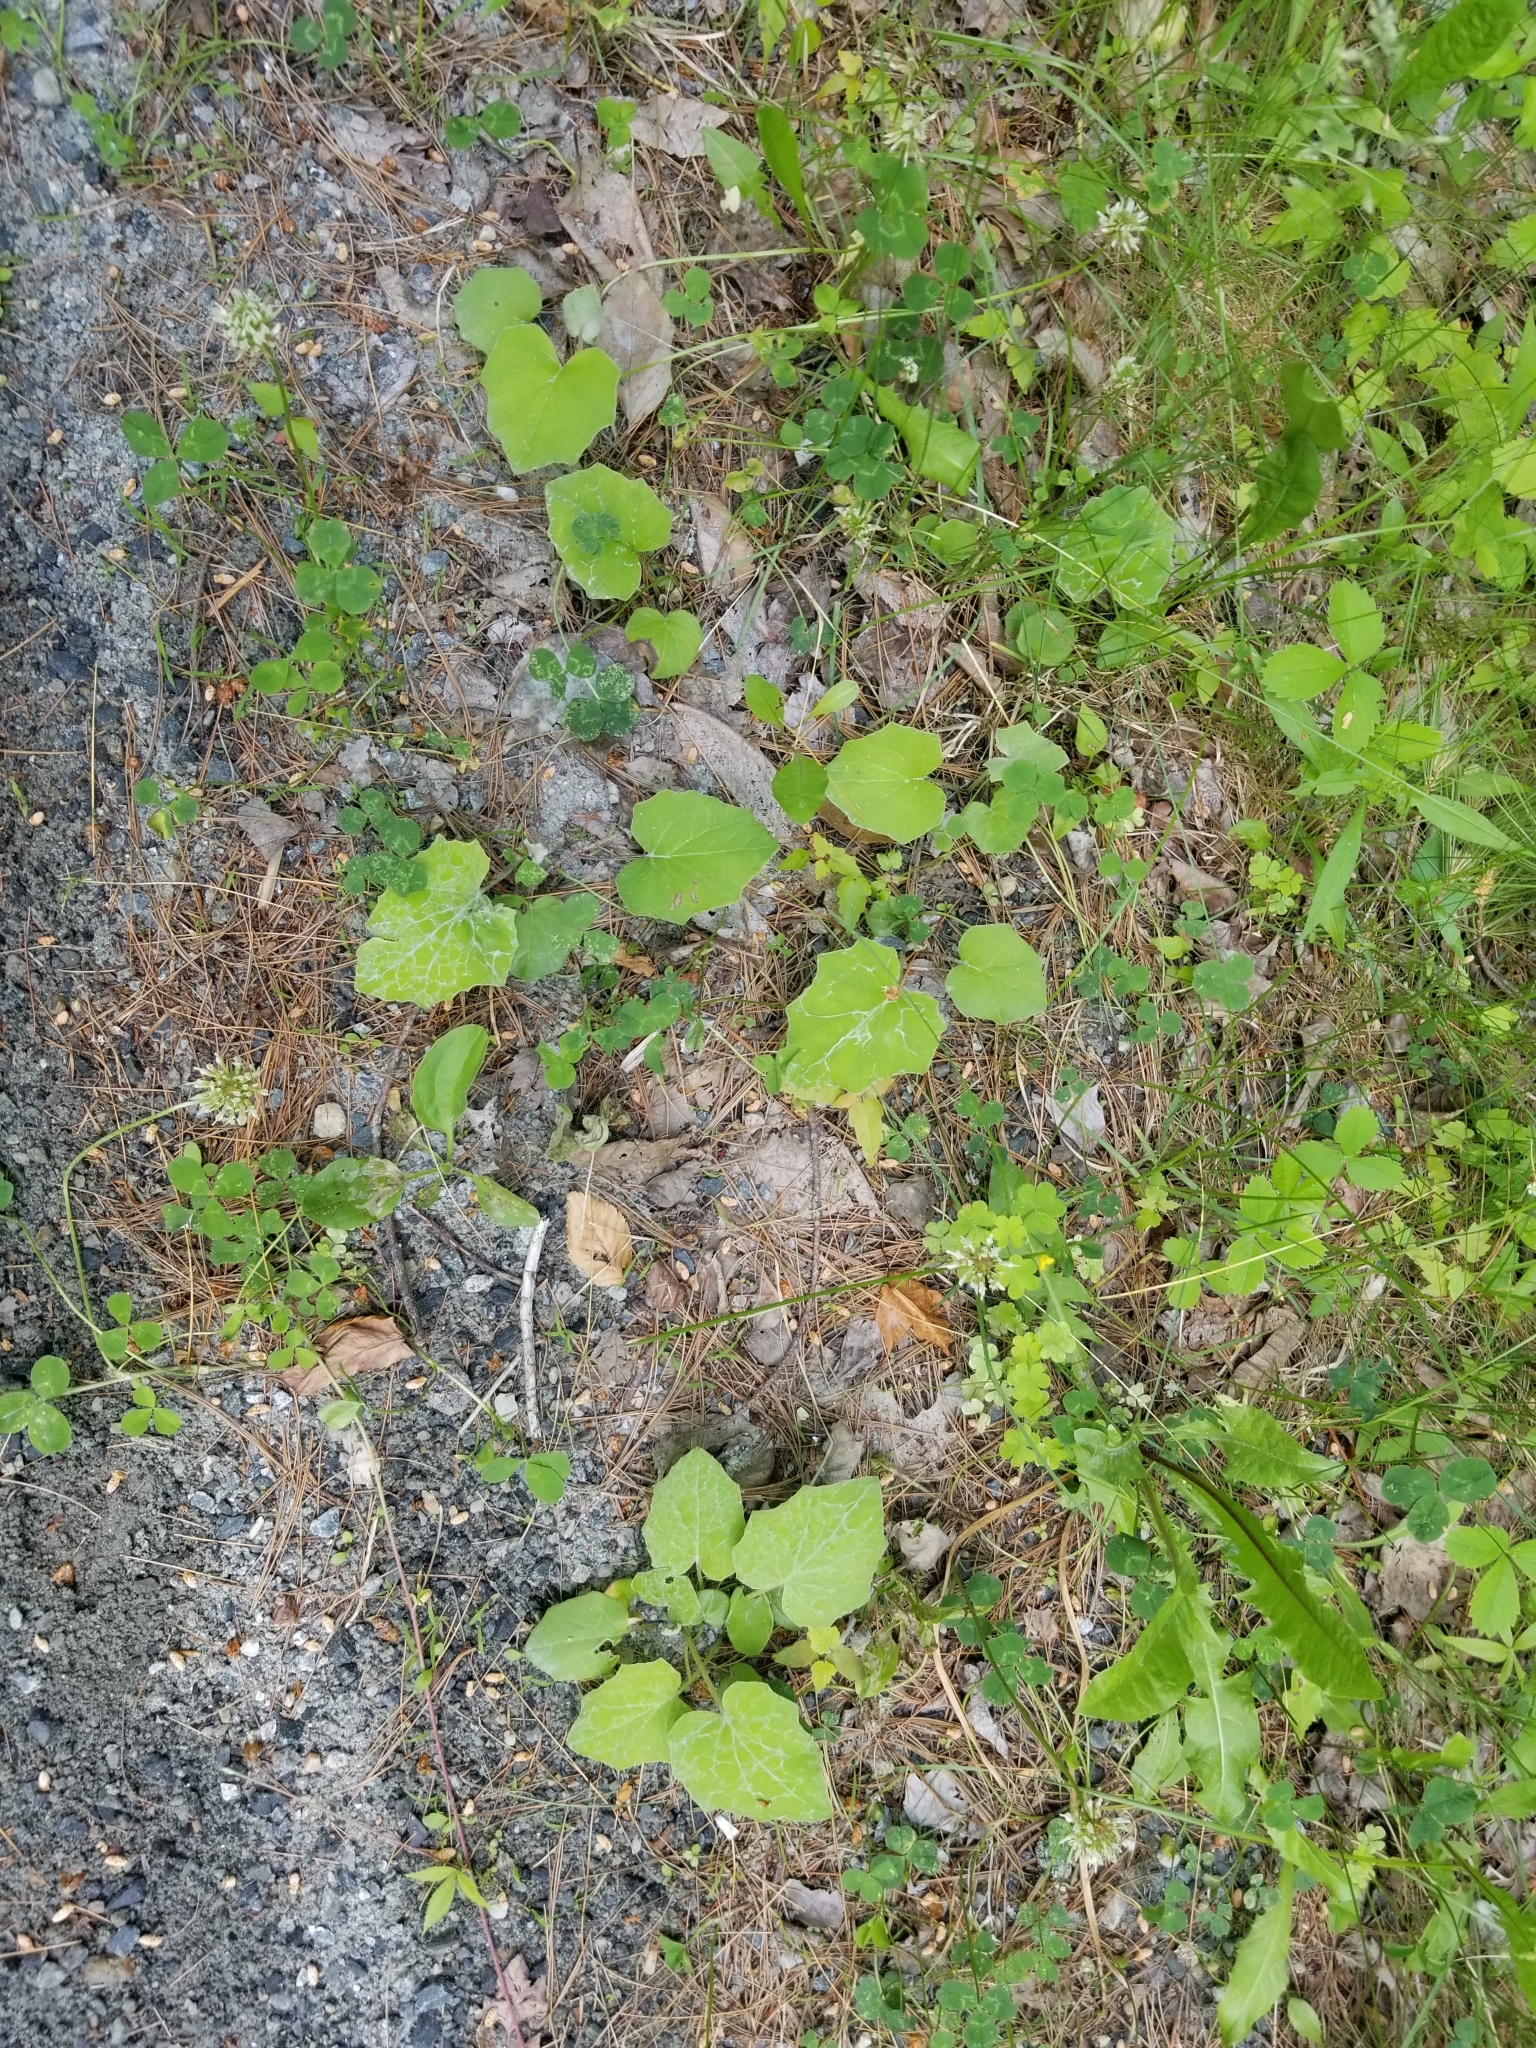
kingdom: Plantae
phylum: Tracheophyta
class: Magnoliopsida
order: Asterales
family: Asteraceae
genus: Tussilago
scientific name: Tussilago farfara
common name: Coltsfoot
